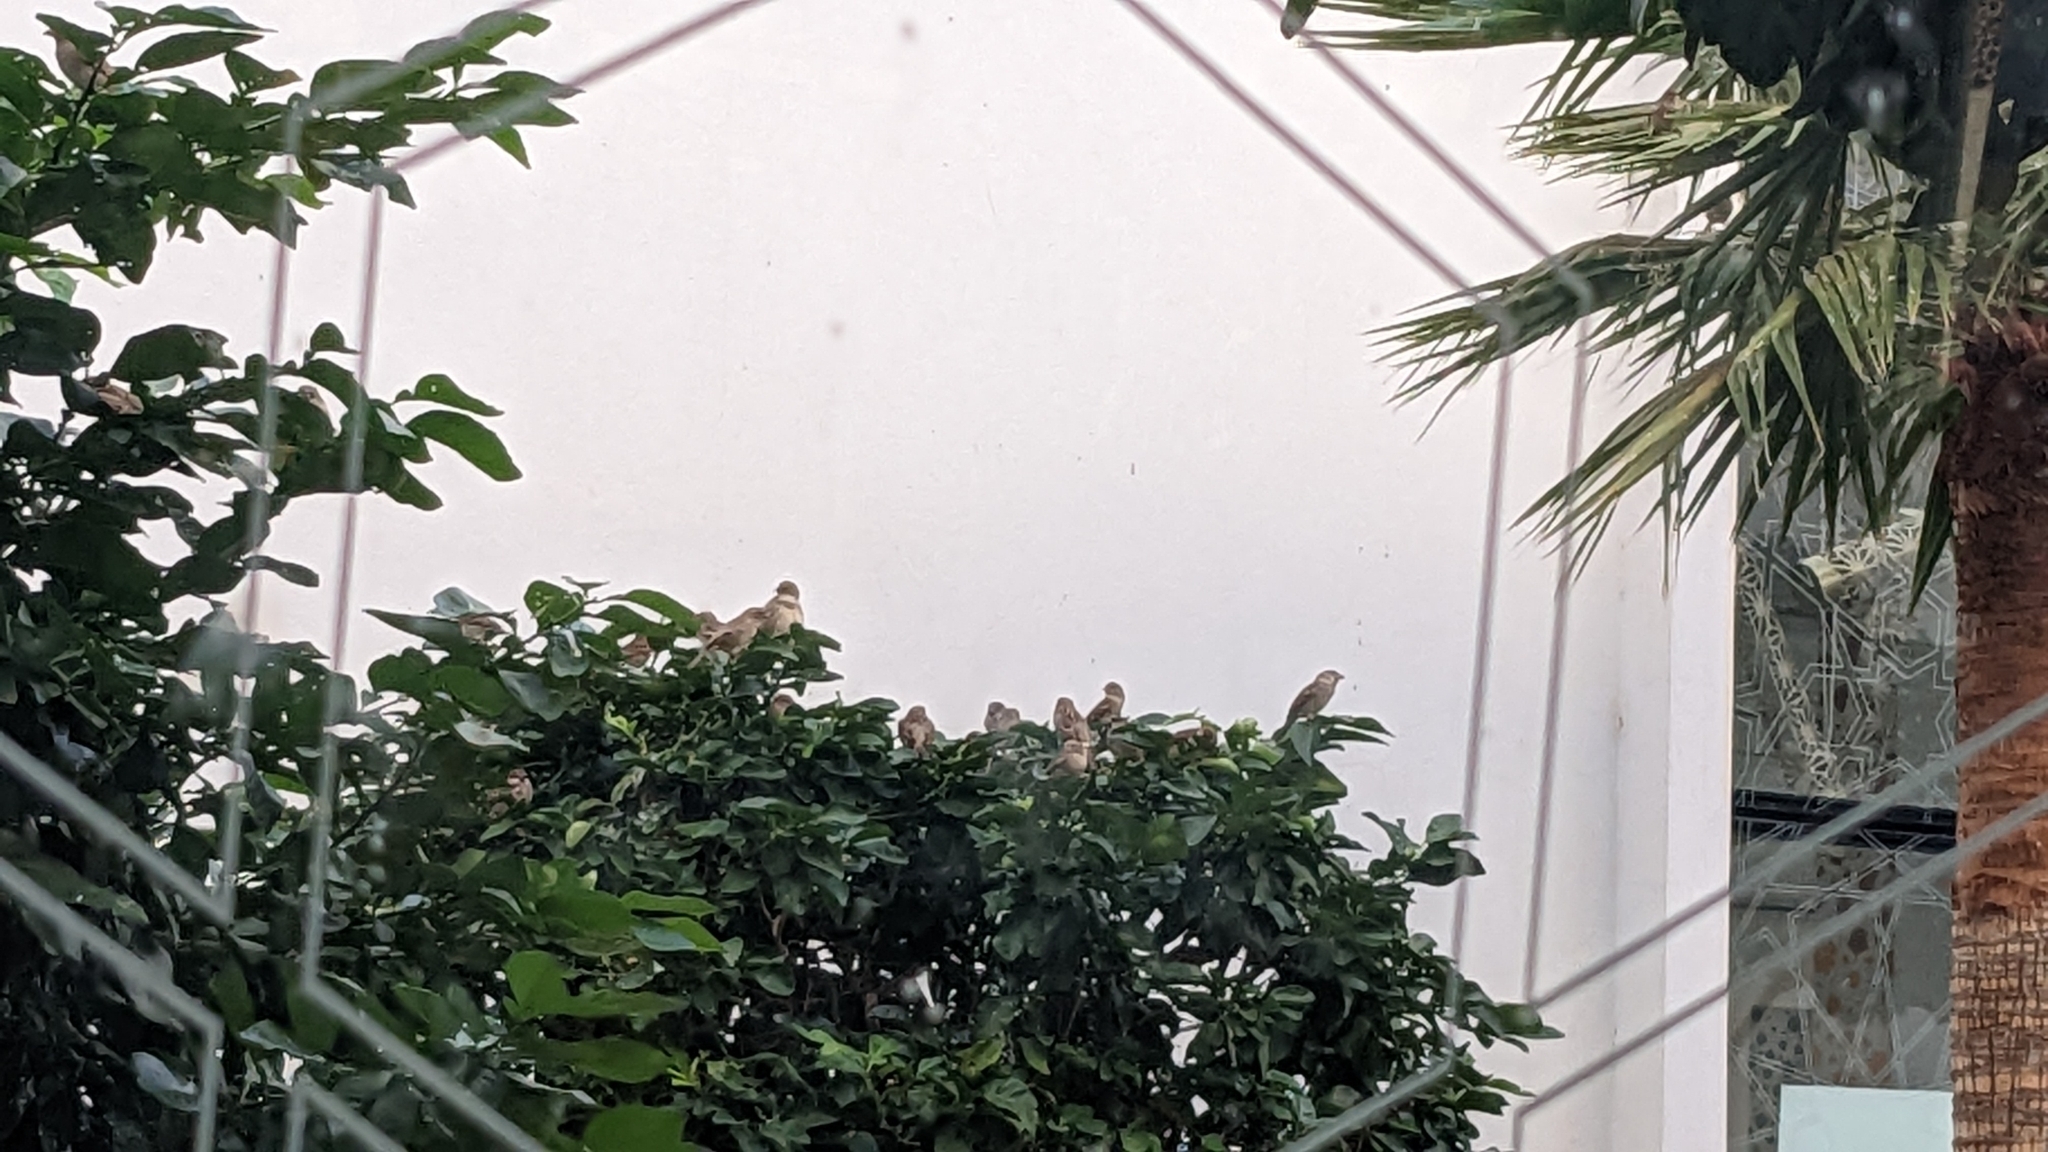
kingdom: Animalia
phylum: Chordata
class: Aves
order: Passeriformes
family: Passeridae
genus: Passer
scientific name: Passer domesticus
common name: House sparrow
